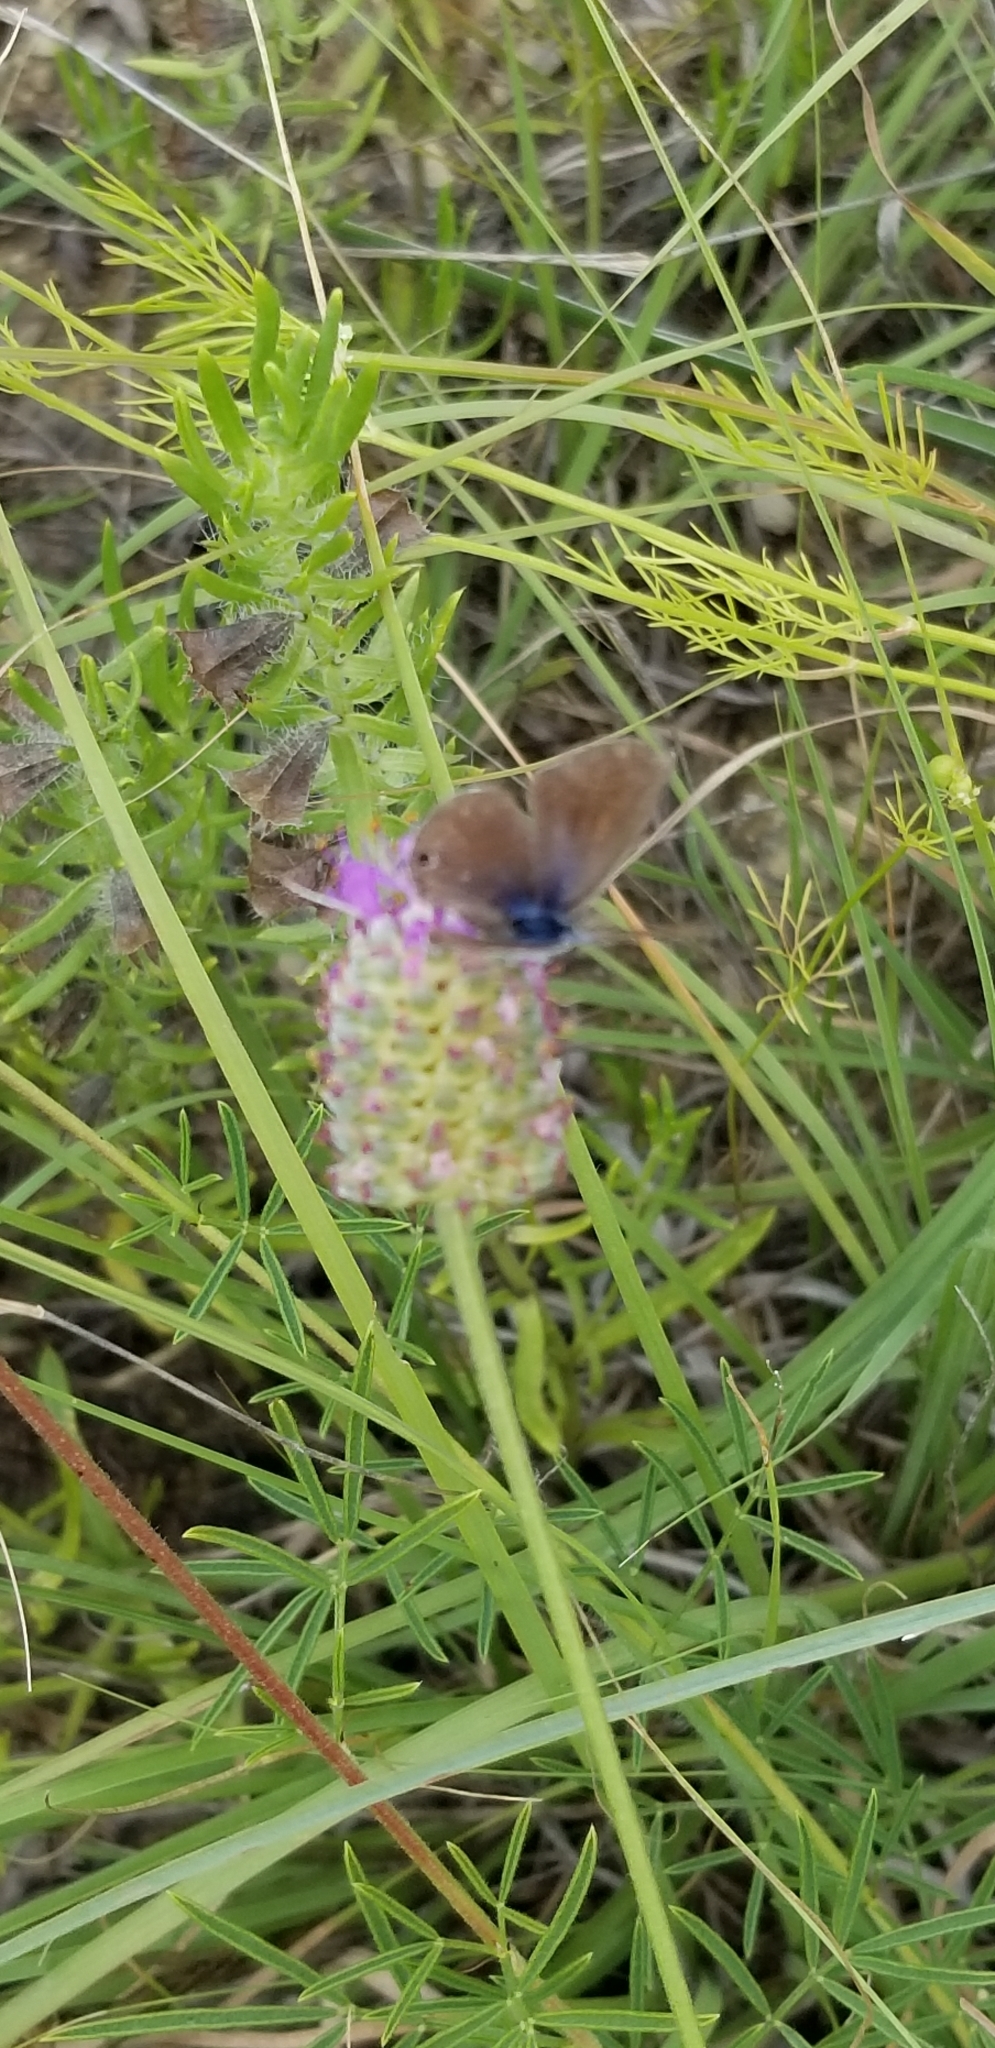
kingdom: Animalia
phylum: Arthropoda
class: Insecta
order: Lepidoptera
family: Lycaenidae
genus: Echinargus
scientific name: Echinargus isola
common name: Reakirt's blue
